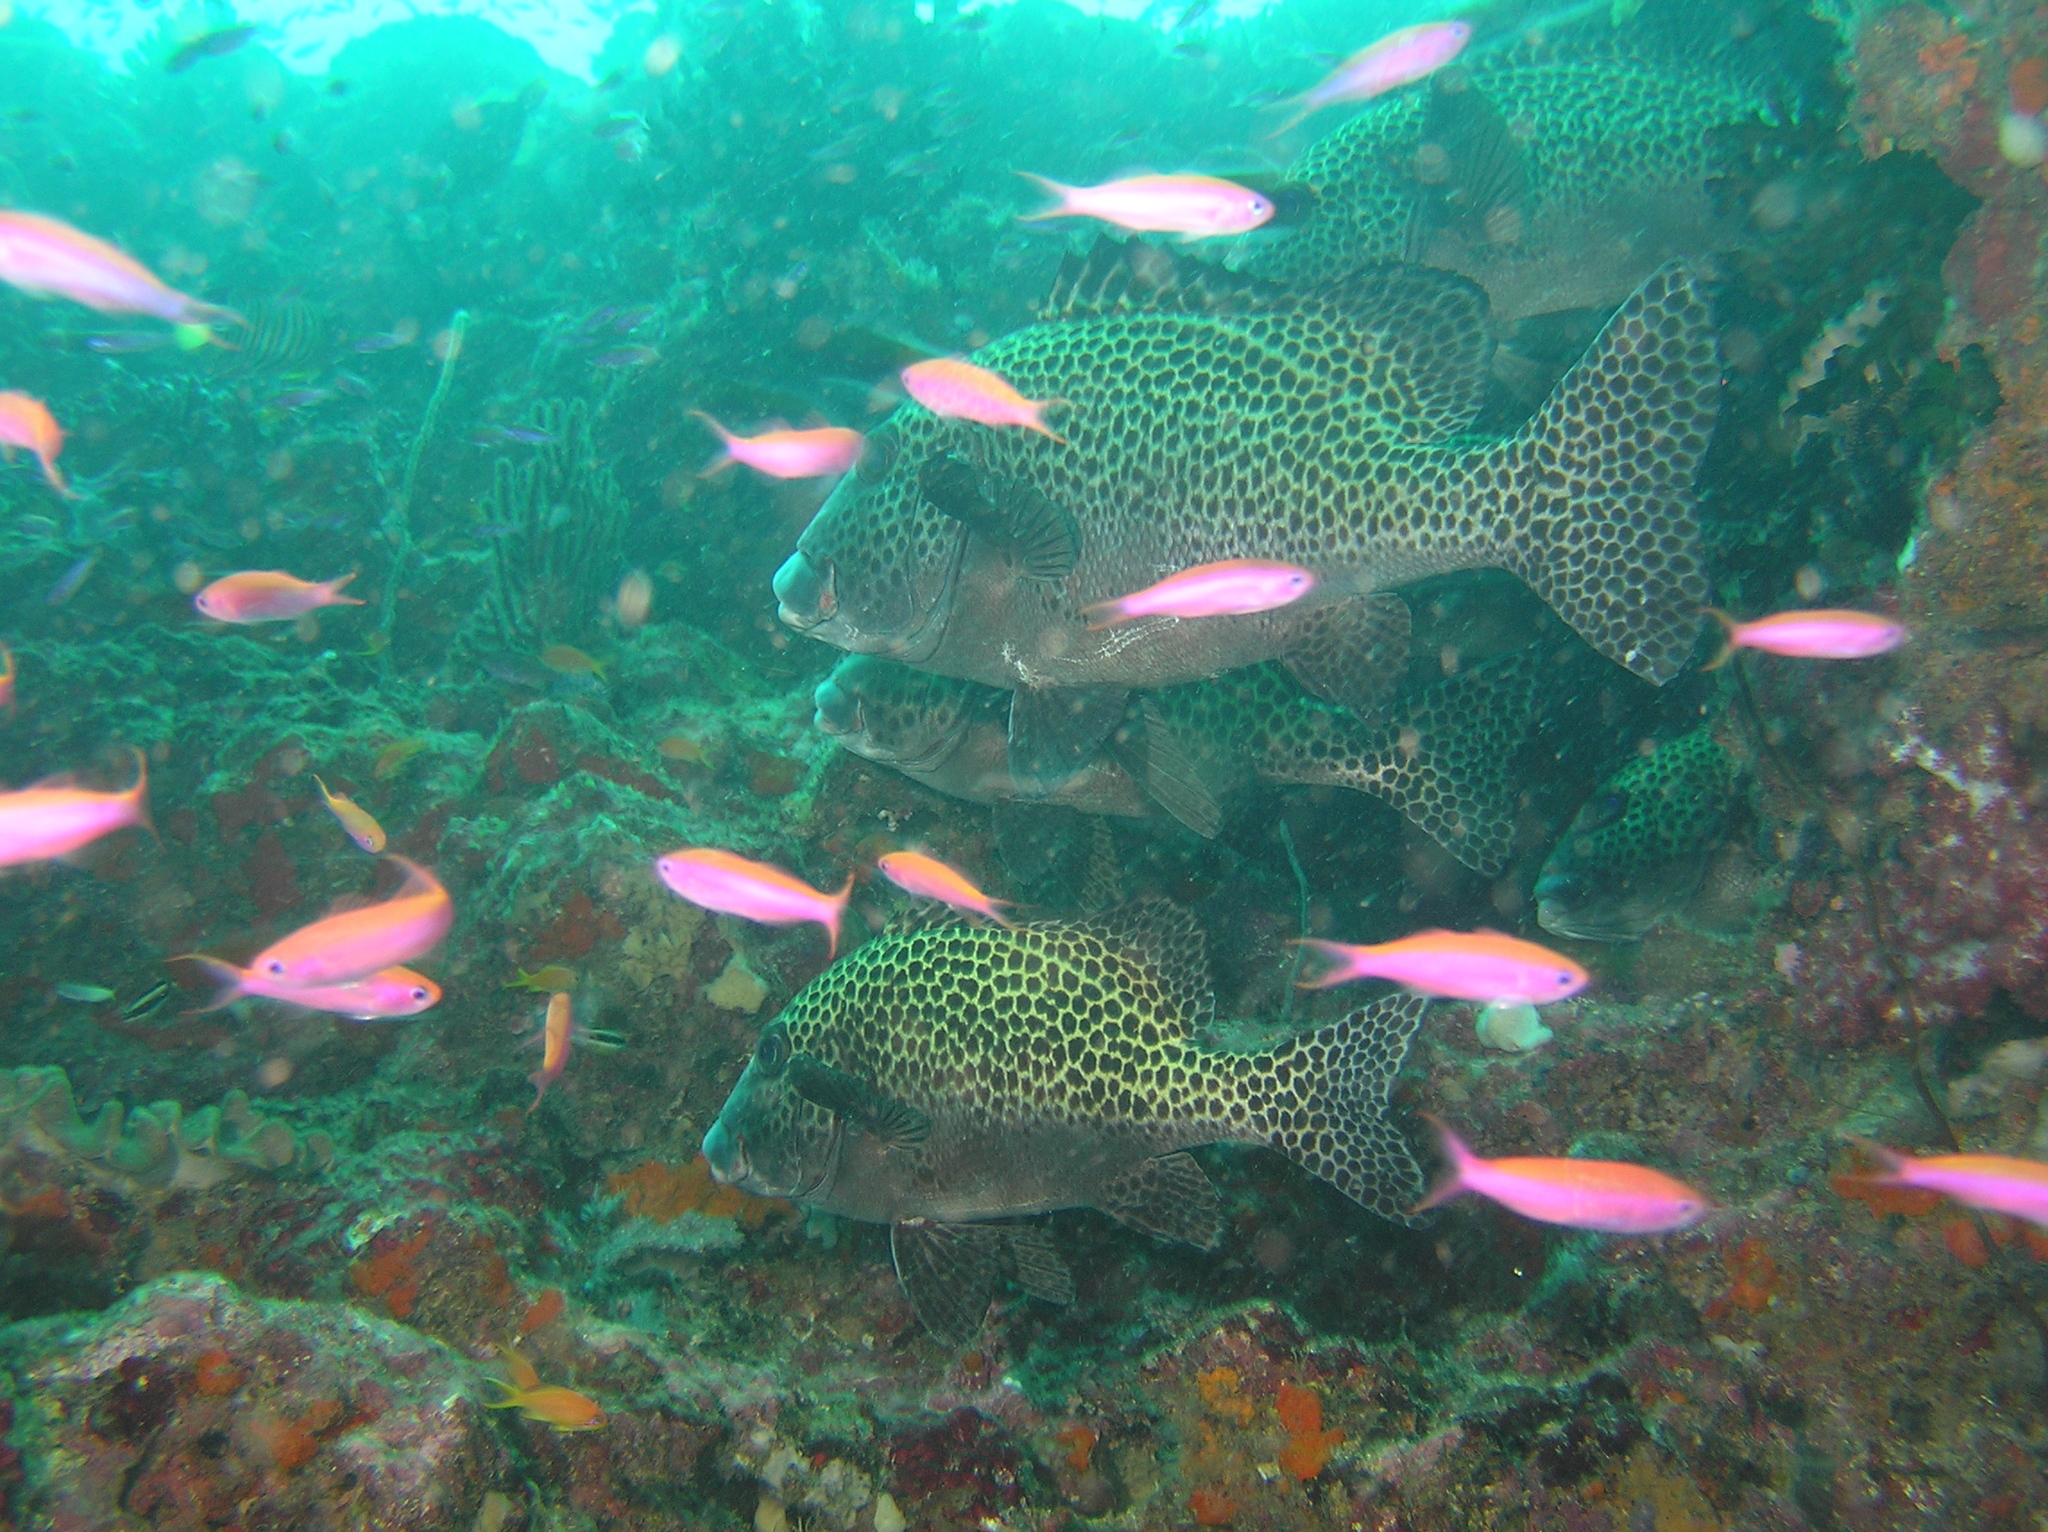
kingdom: Animalia
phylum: Chordata
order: Perciformes
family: Serranidae
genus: Luzonichthys
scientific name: Luzonichthys waitei
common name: Waite's splitfin
